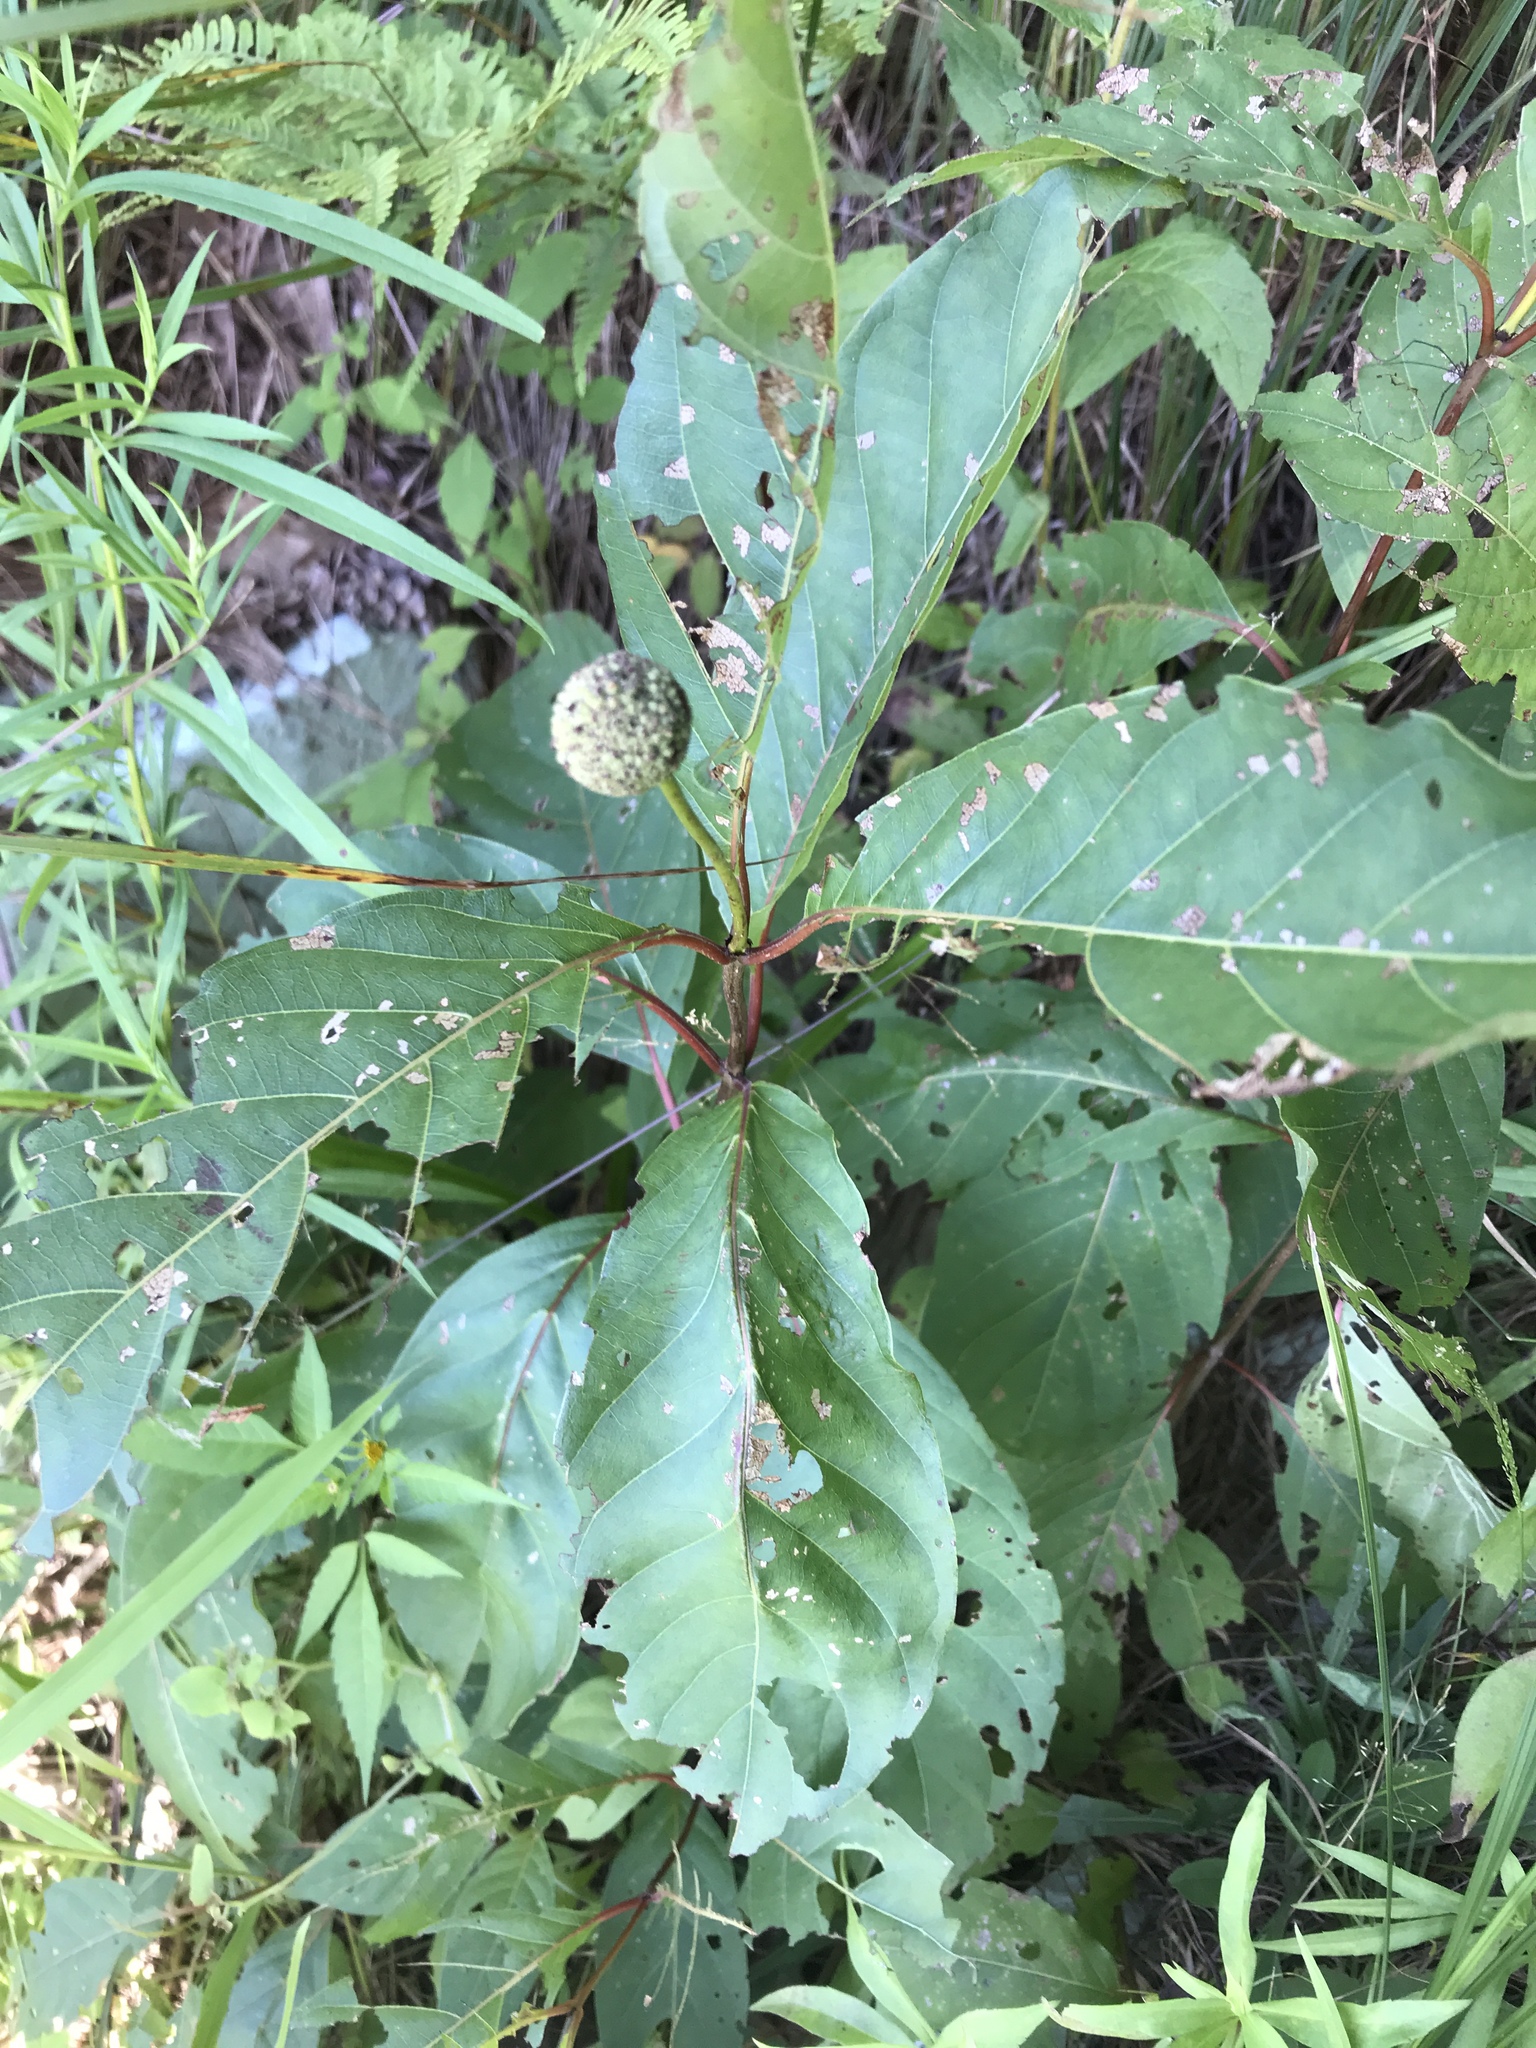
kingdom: Plantae
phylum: Tracheophyta
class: Magnoliopsida
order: Gentianales
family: Rubiaceae
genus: Cephalanthus
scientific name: Cephalanthus occidentalis
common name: Button-willow
